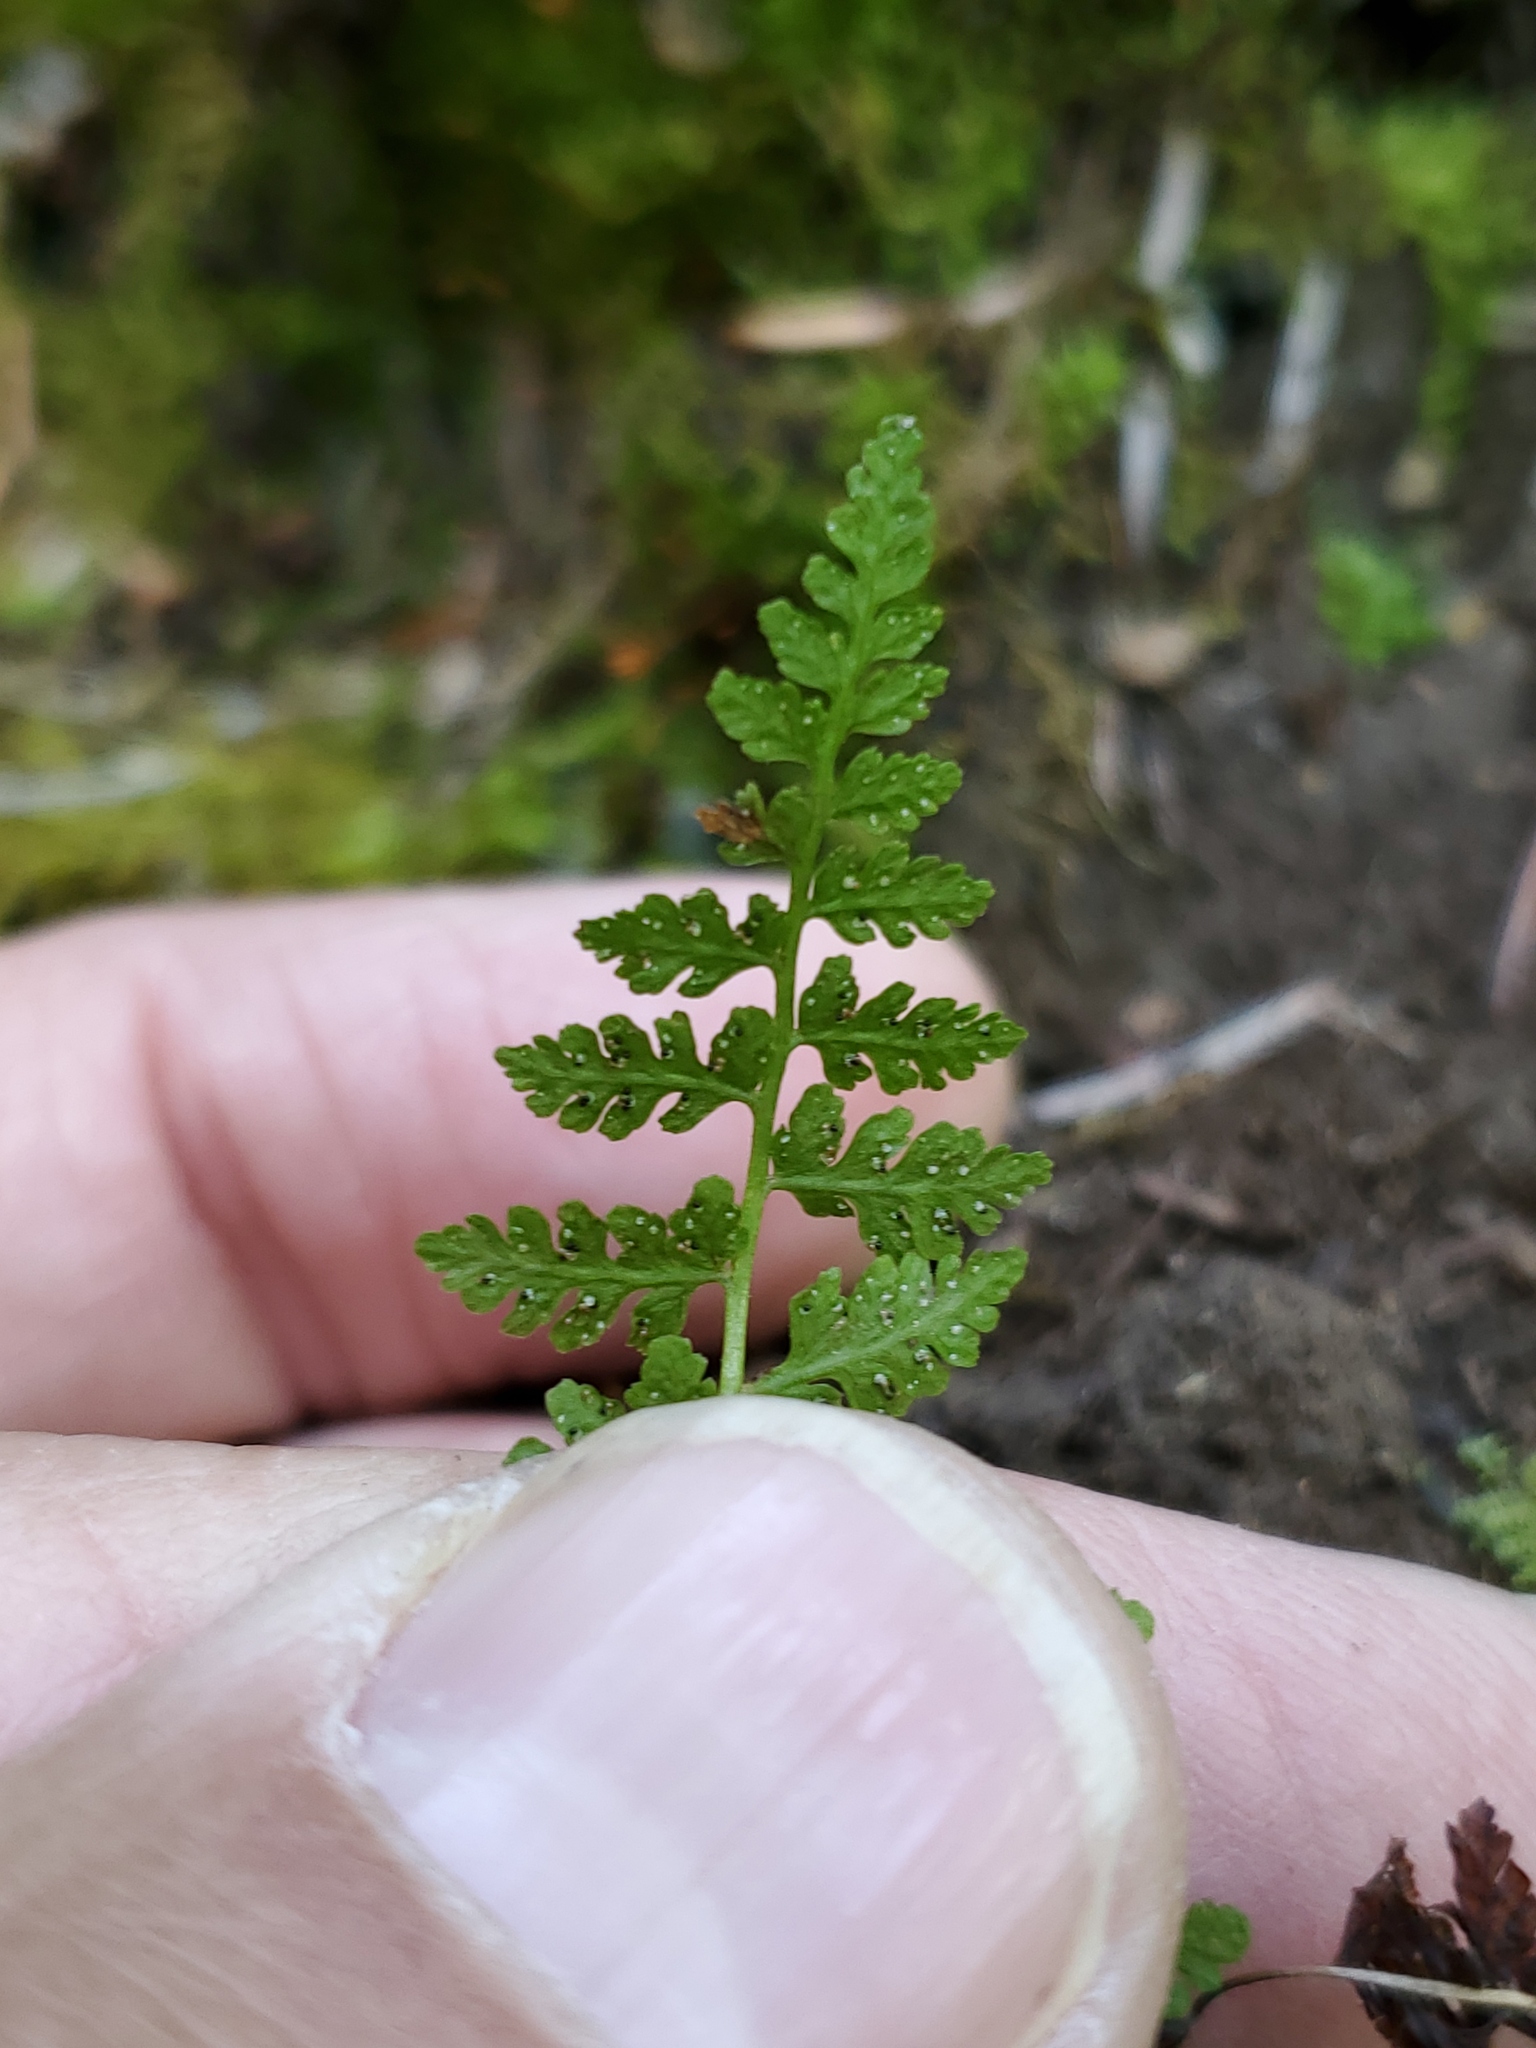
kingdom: Plantae
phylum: Tracheophyta
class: Polypodiopsida
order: Polypodiales
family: Cystopteridaceae
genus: Cystopteris
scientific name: Cystopteris fragilis
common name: Brittle bladder fern
